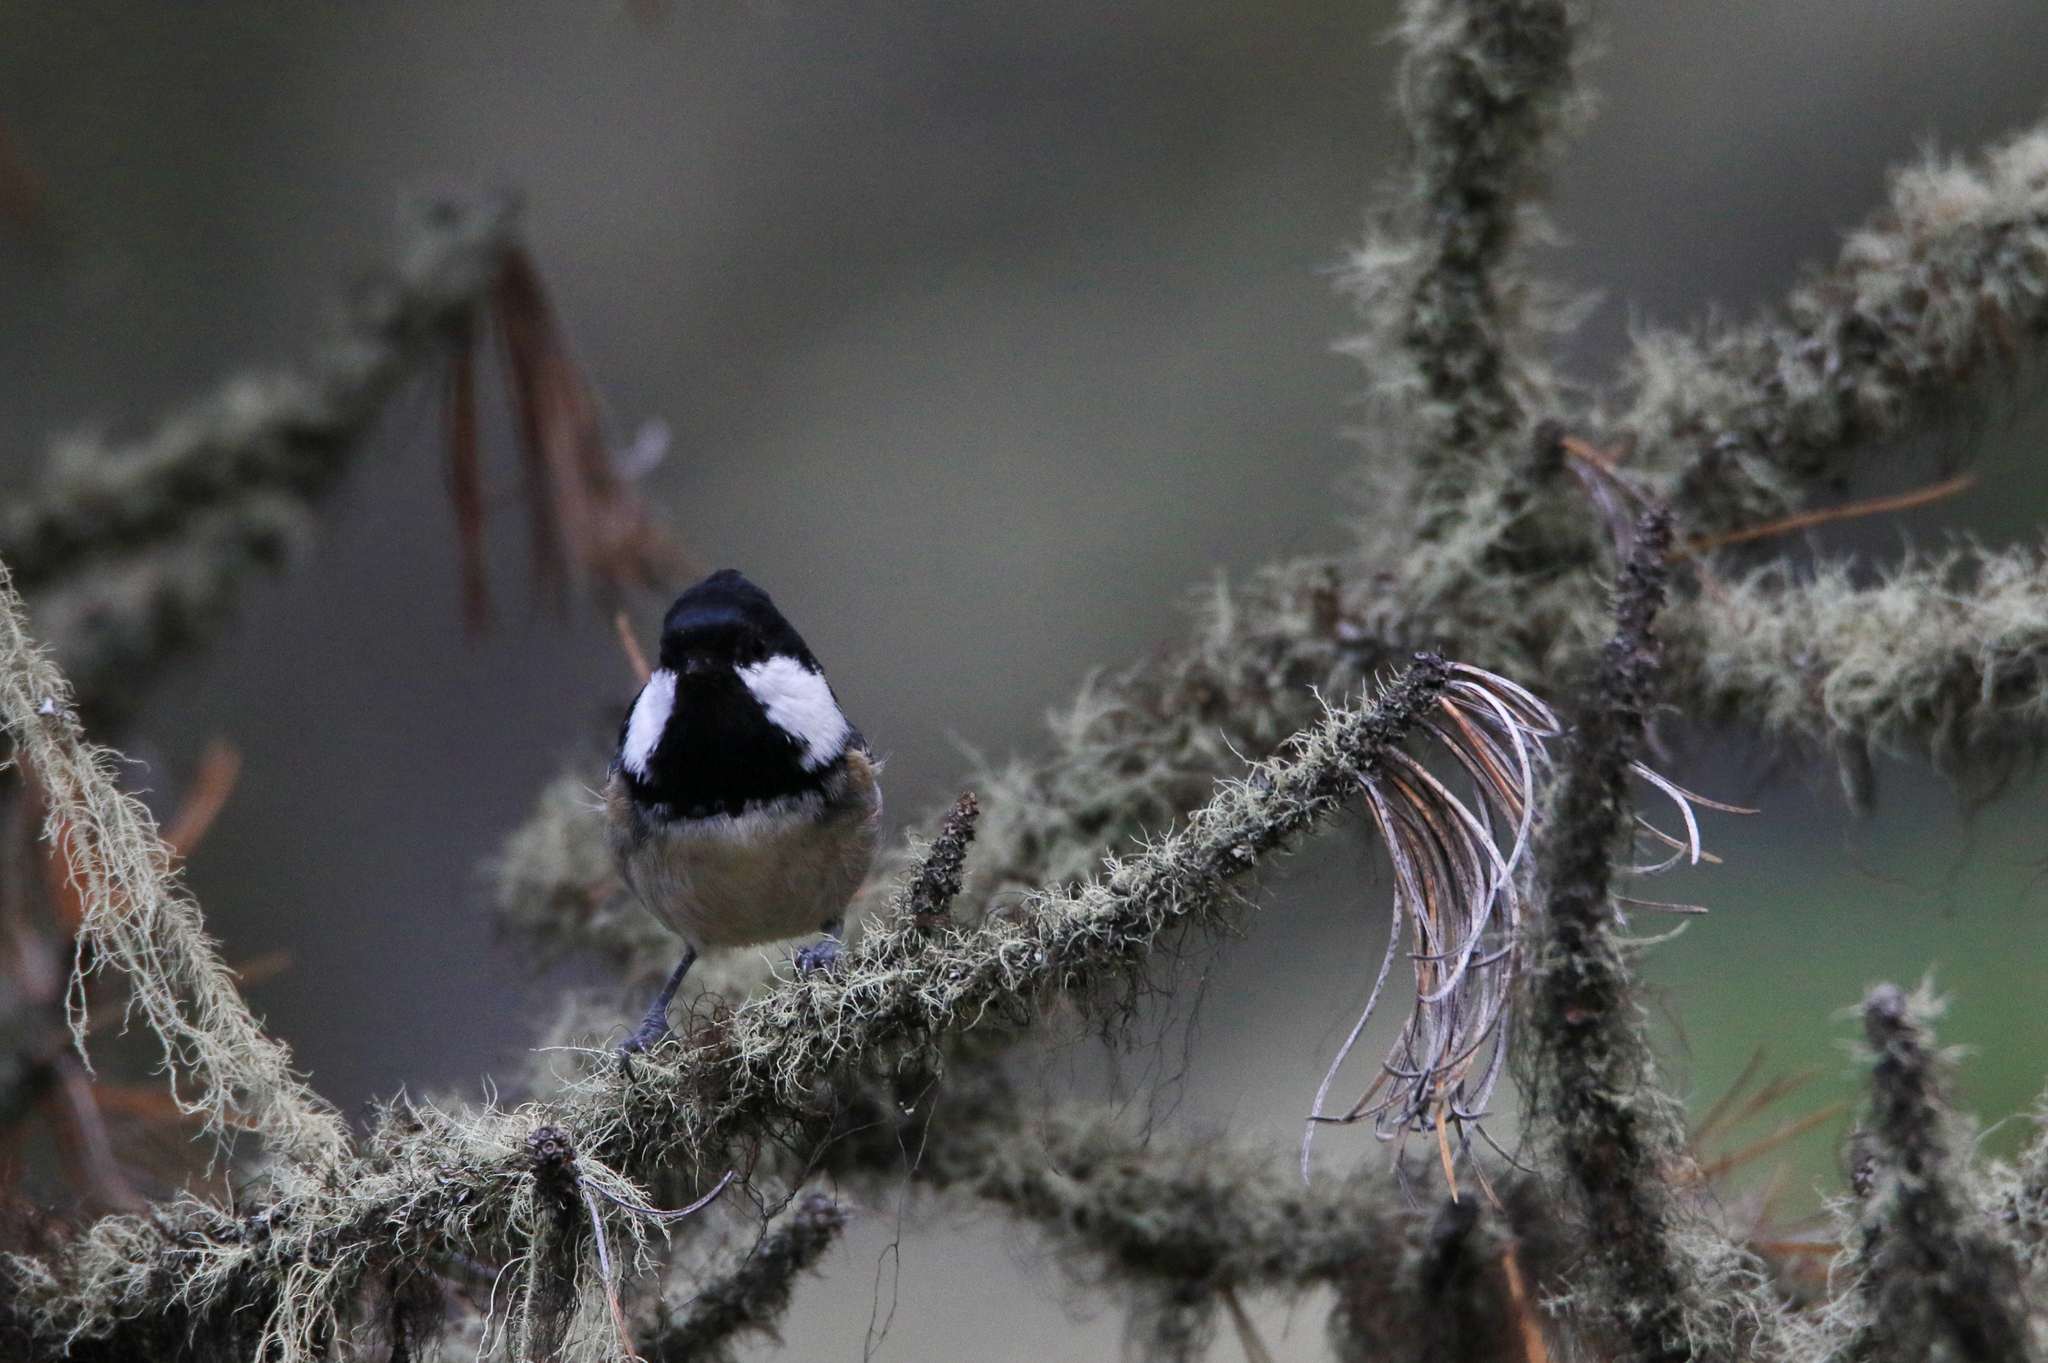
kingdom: Animalia
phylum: Chordata
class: Aves
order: Passeriformes
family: Paridae
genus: Periparus
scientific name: Periparus ater
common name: Coal tit
